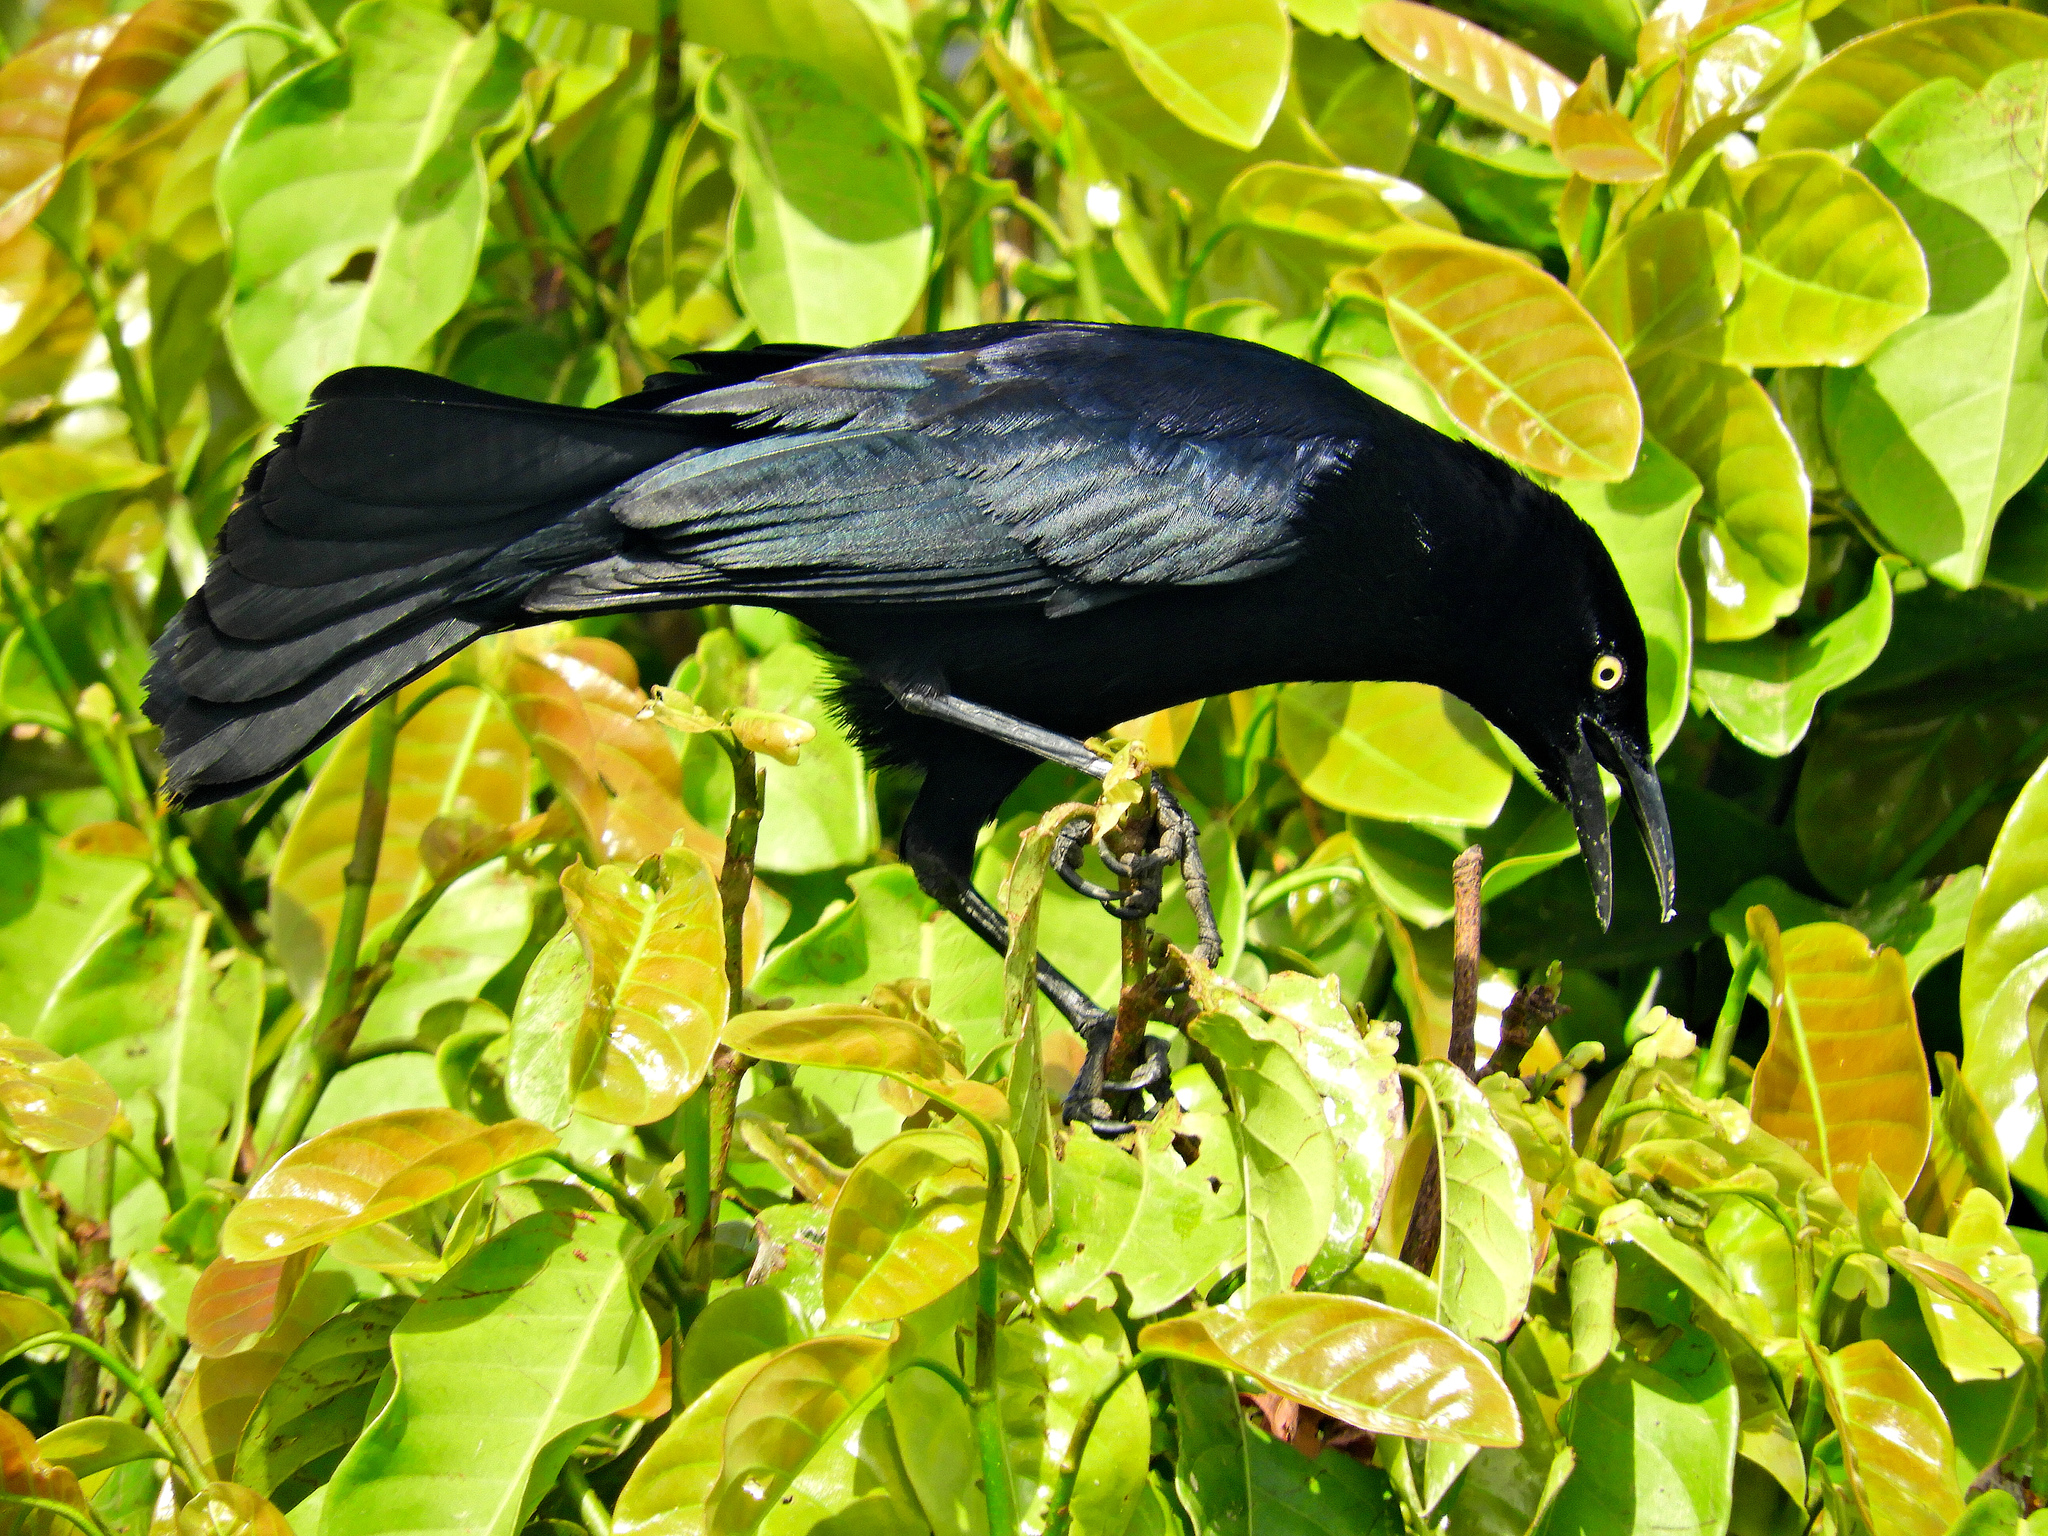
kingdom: Animalia
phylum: Chordata
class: Aves
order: Passeriformes
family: Icteridae
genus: Quiscalus
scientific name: Quiscalus lugubris
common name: Carib grackle
